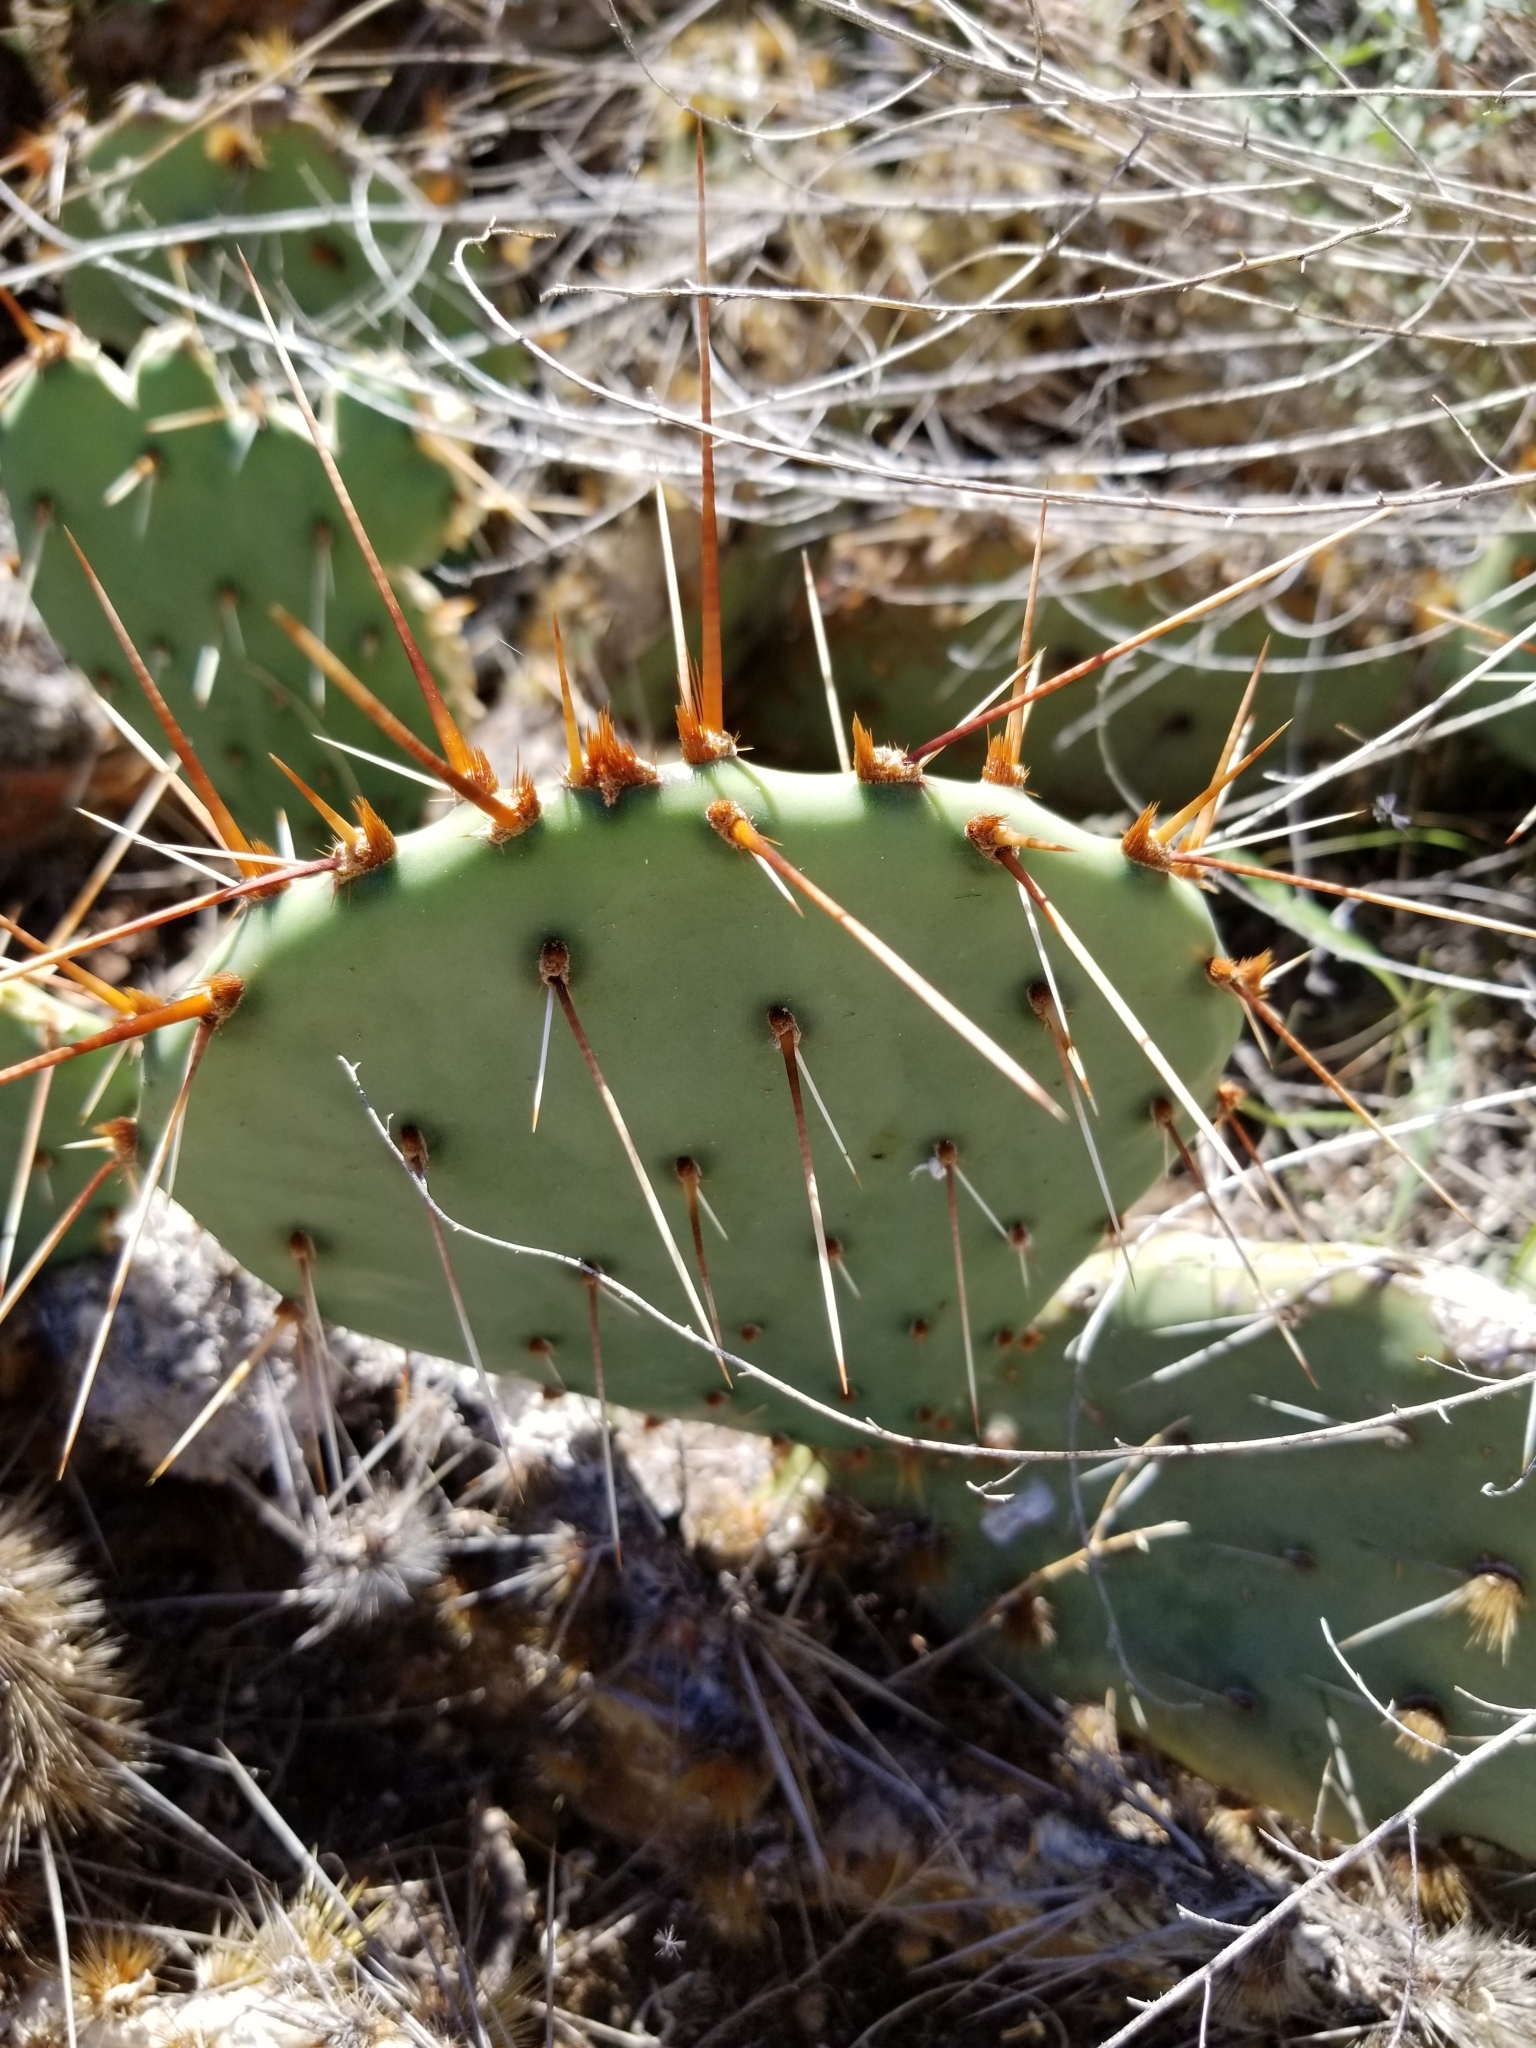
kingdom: Plantae
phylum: Tracheophyta
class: Magnoliopsida
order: Caryophyllales
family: Cactaceae
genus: Opuntia
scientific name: Opuntia phaeacantha
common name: New mexico prickly-pear
